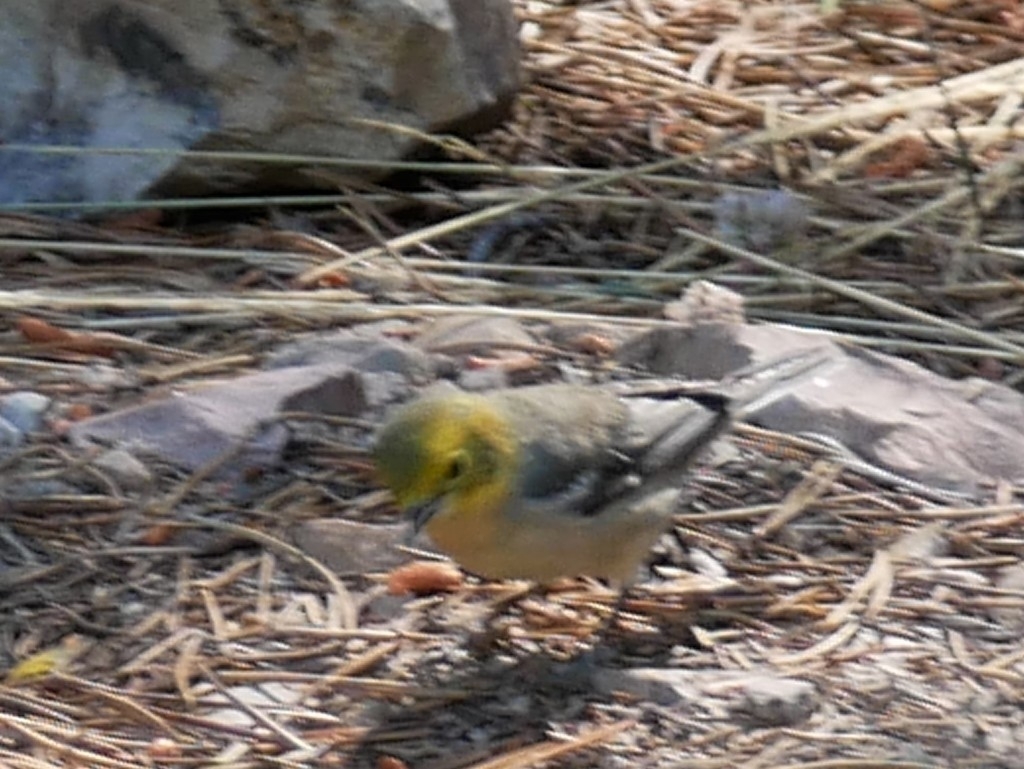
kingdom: Animalia
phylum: Chordata
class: Aves
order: Passeriformes
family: Parulidae
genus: Setophaga
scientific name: Setophaga occidentalis
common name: Hermit warbler
